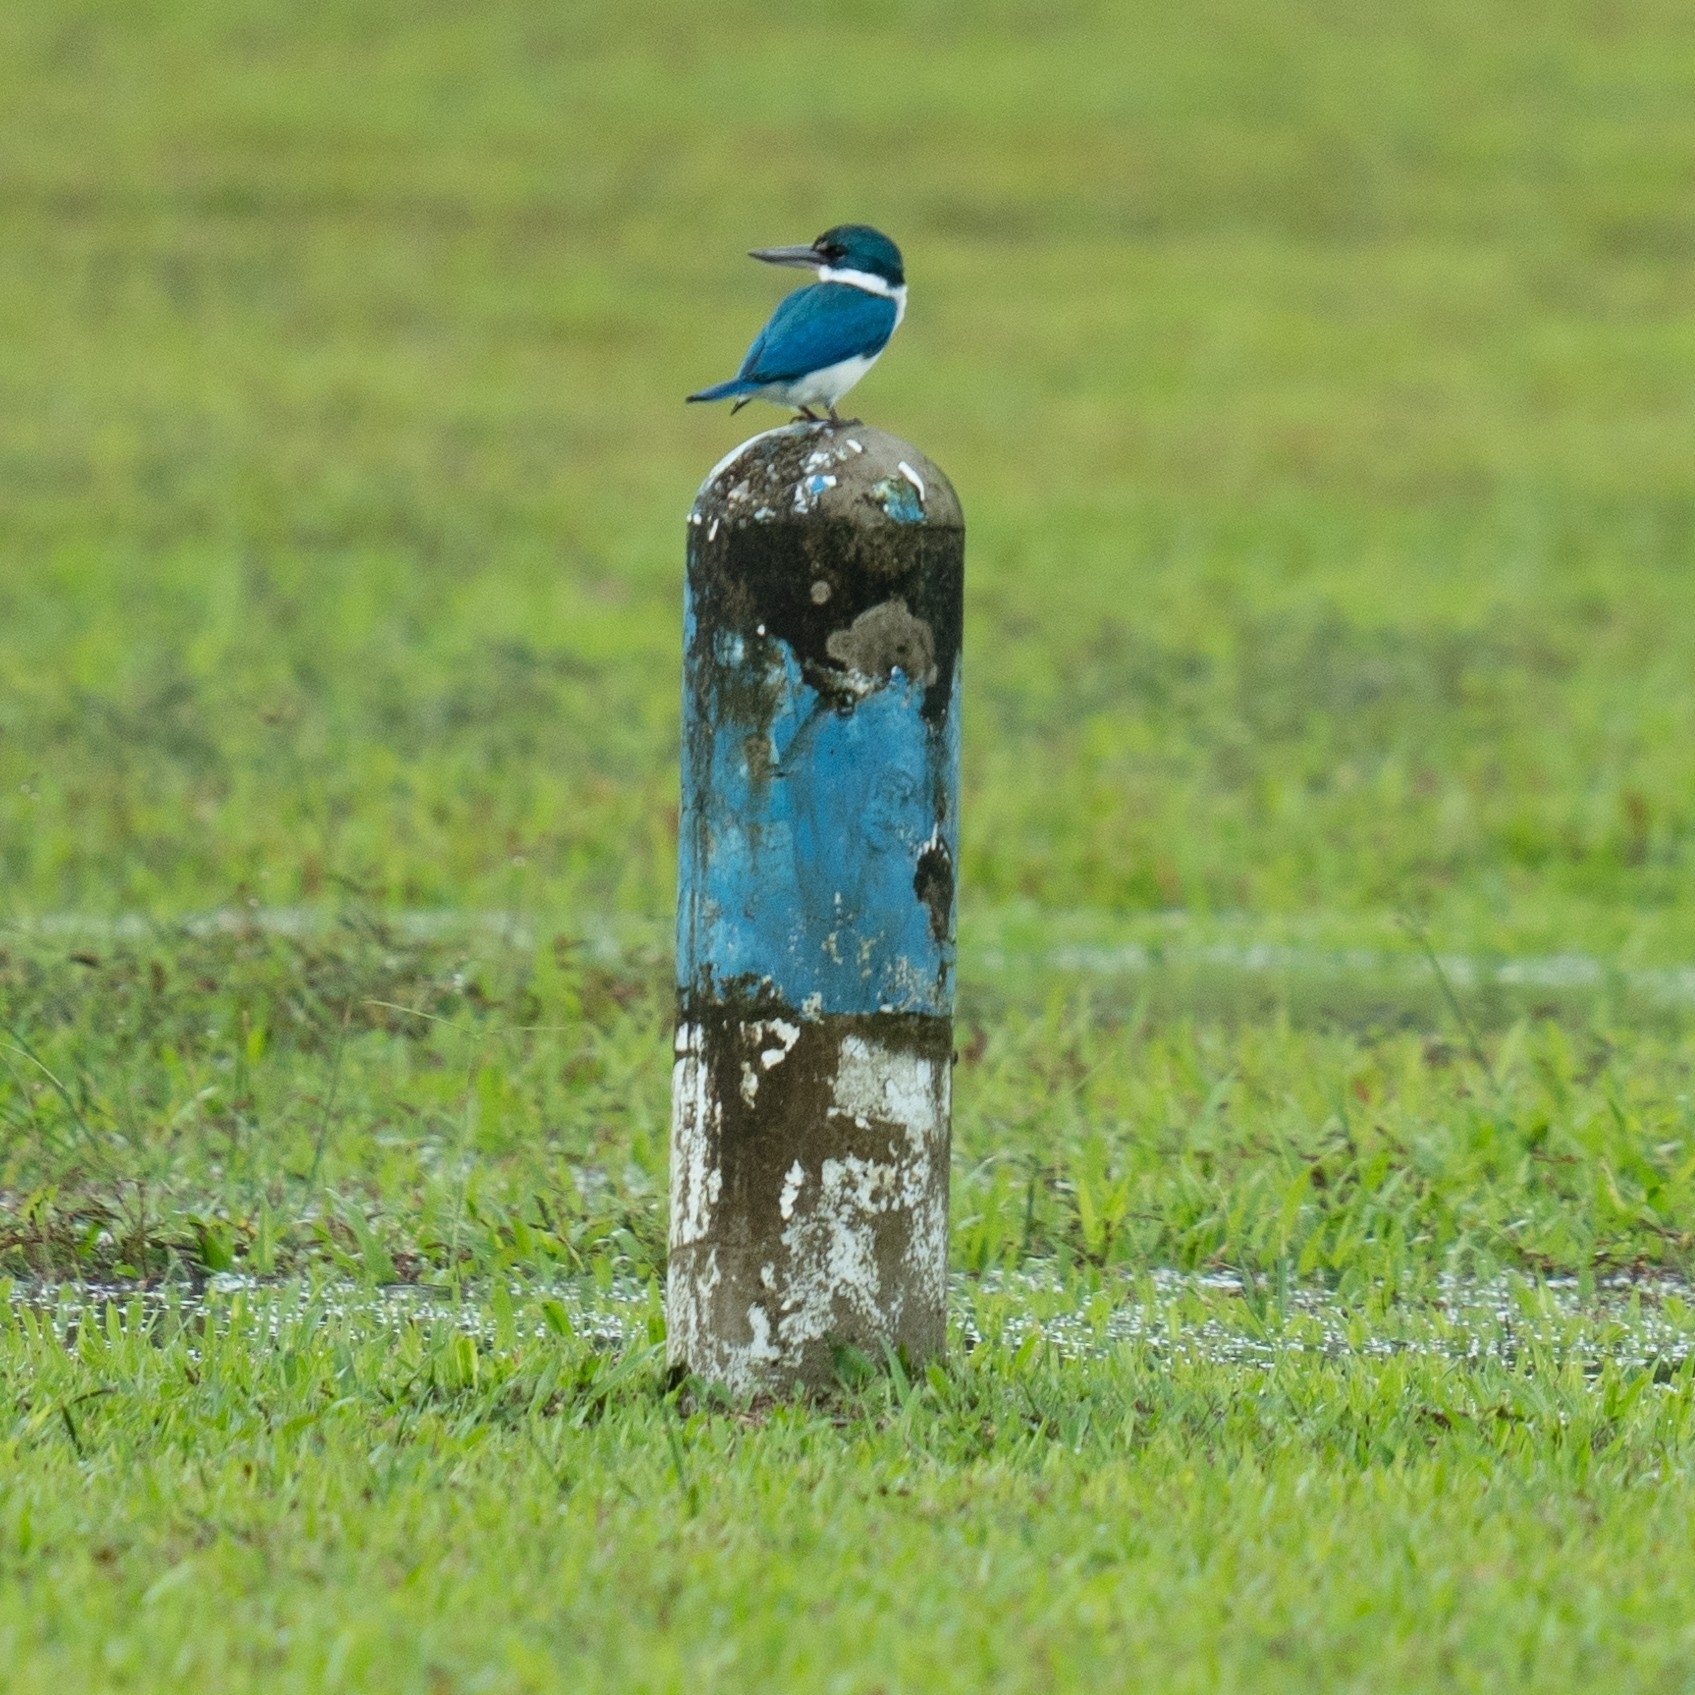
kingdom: Animalia
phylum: Chordata
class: Aves
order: Coraciiformes
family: Alcedinidae
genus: Todiramphus
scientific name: Todiramphus chloris
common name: Collared kingfisher
